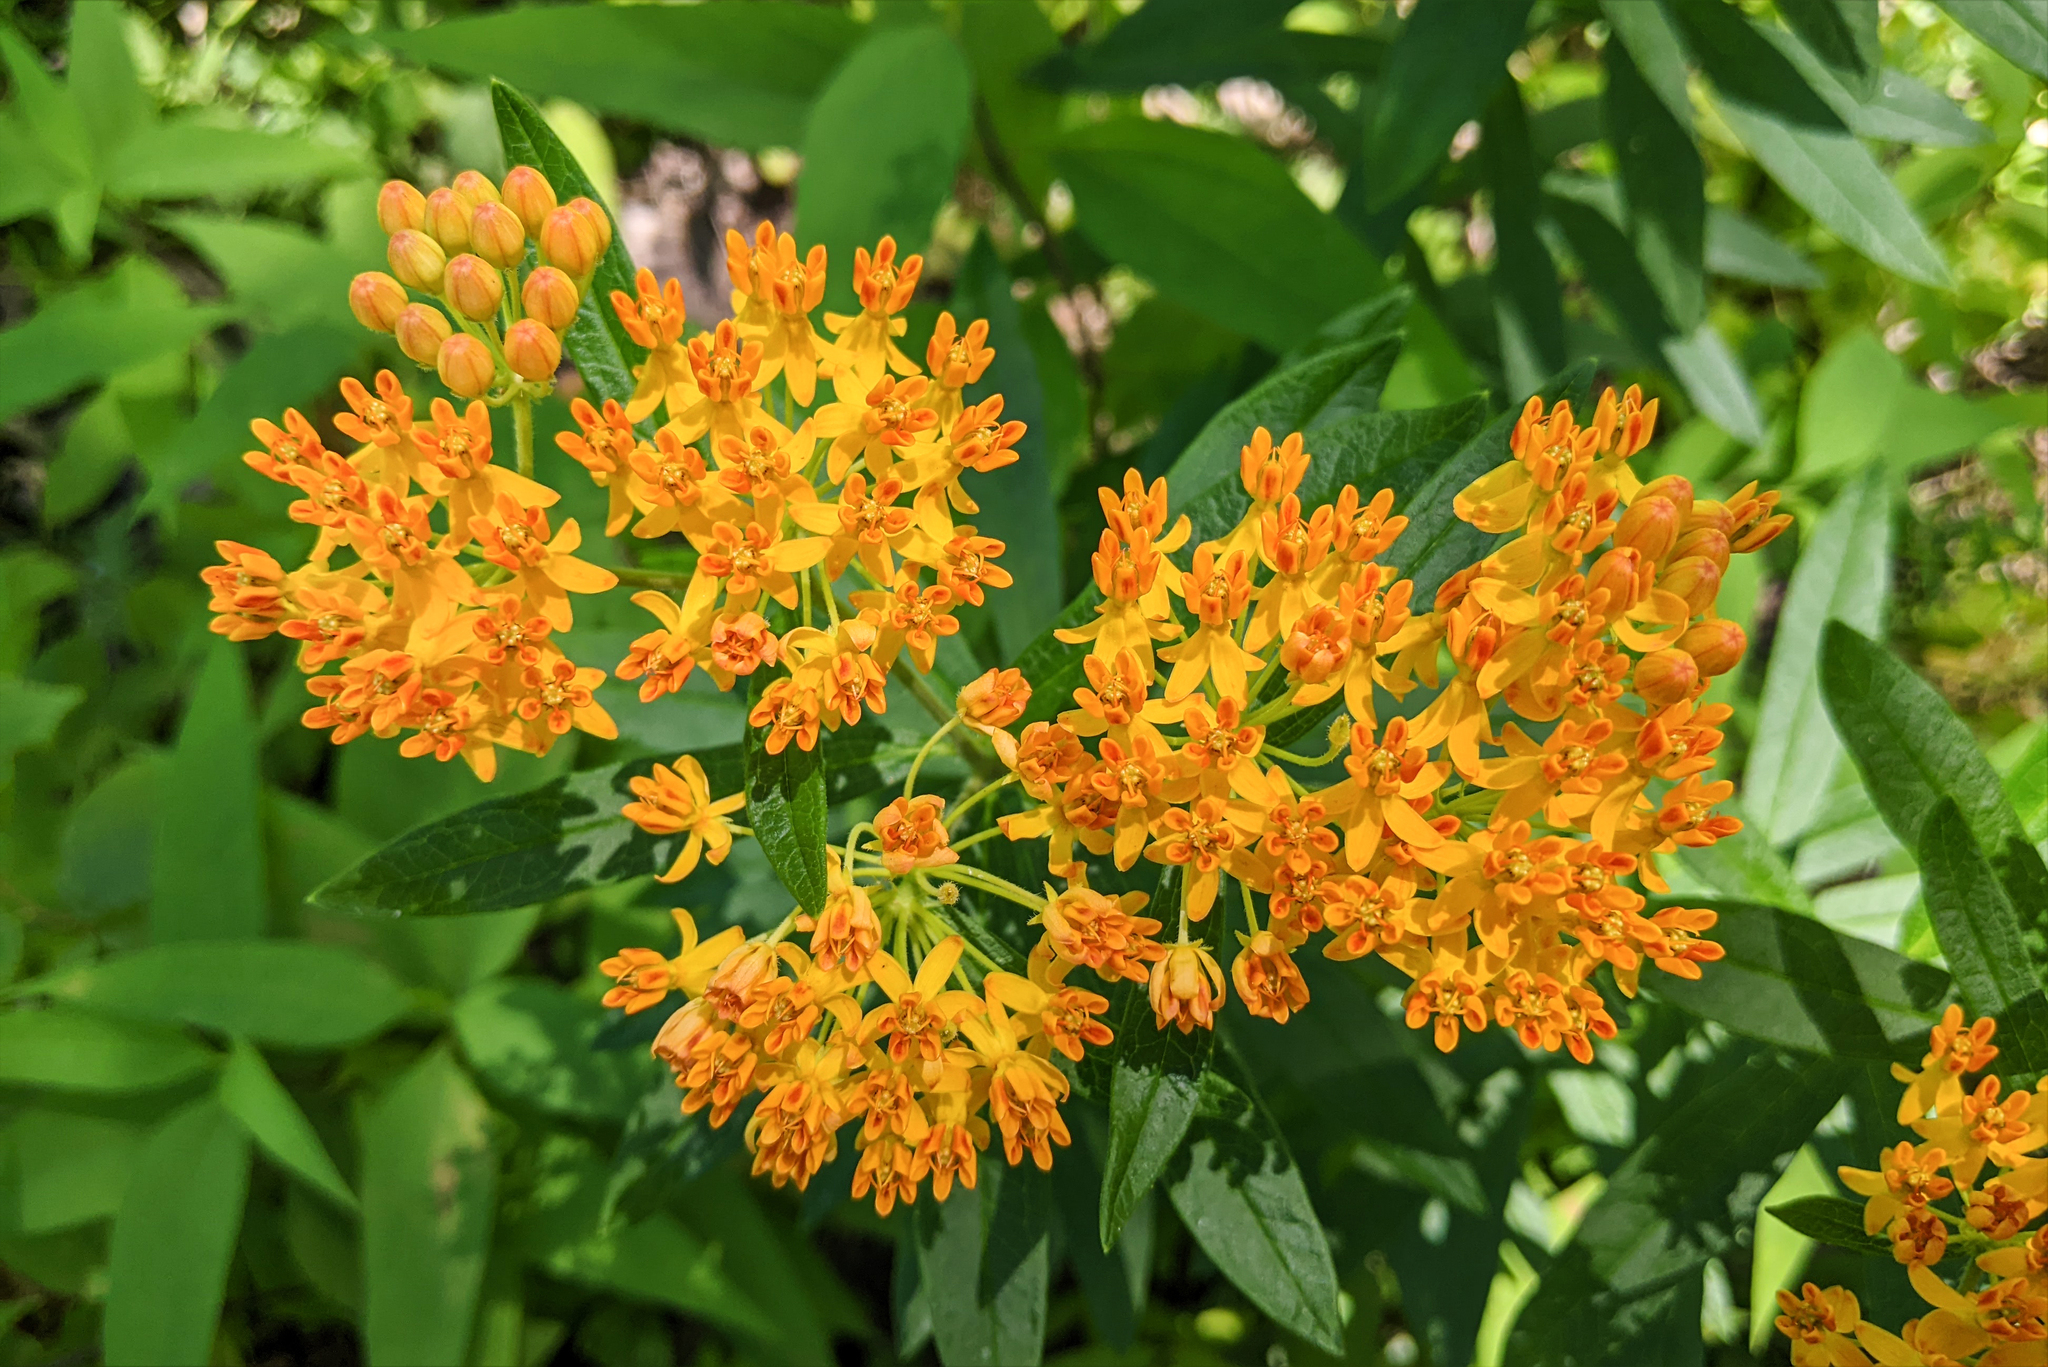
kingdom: Plantae
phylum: Tracheophyta
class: Magnoliopsida
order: Gentianales
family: Apocynaceae
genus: Asclepias
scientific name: Asclepias tuberosa
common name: Butterfly milkweed
